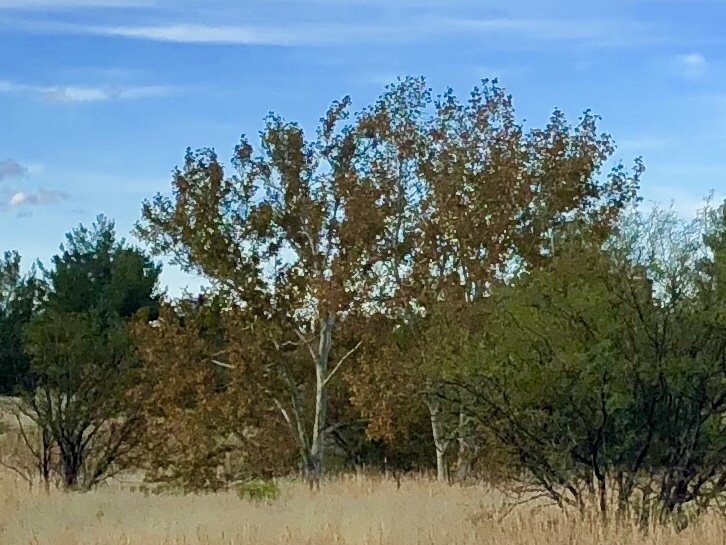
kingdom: Plantae
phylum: Tracheophyta
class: Magnoliopsida
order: Proteales
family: Platanaceae
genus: Platanus
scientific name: Platanus wrightii
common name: Arizona sycamore
